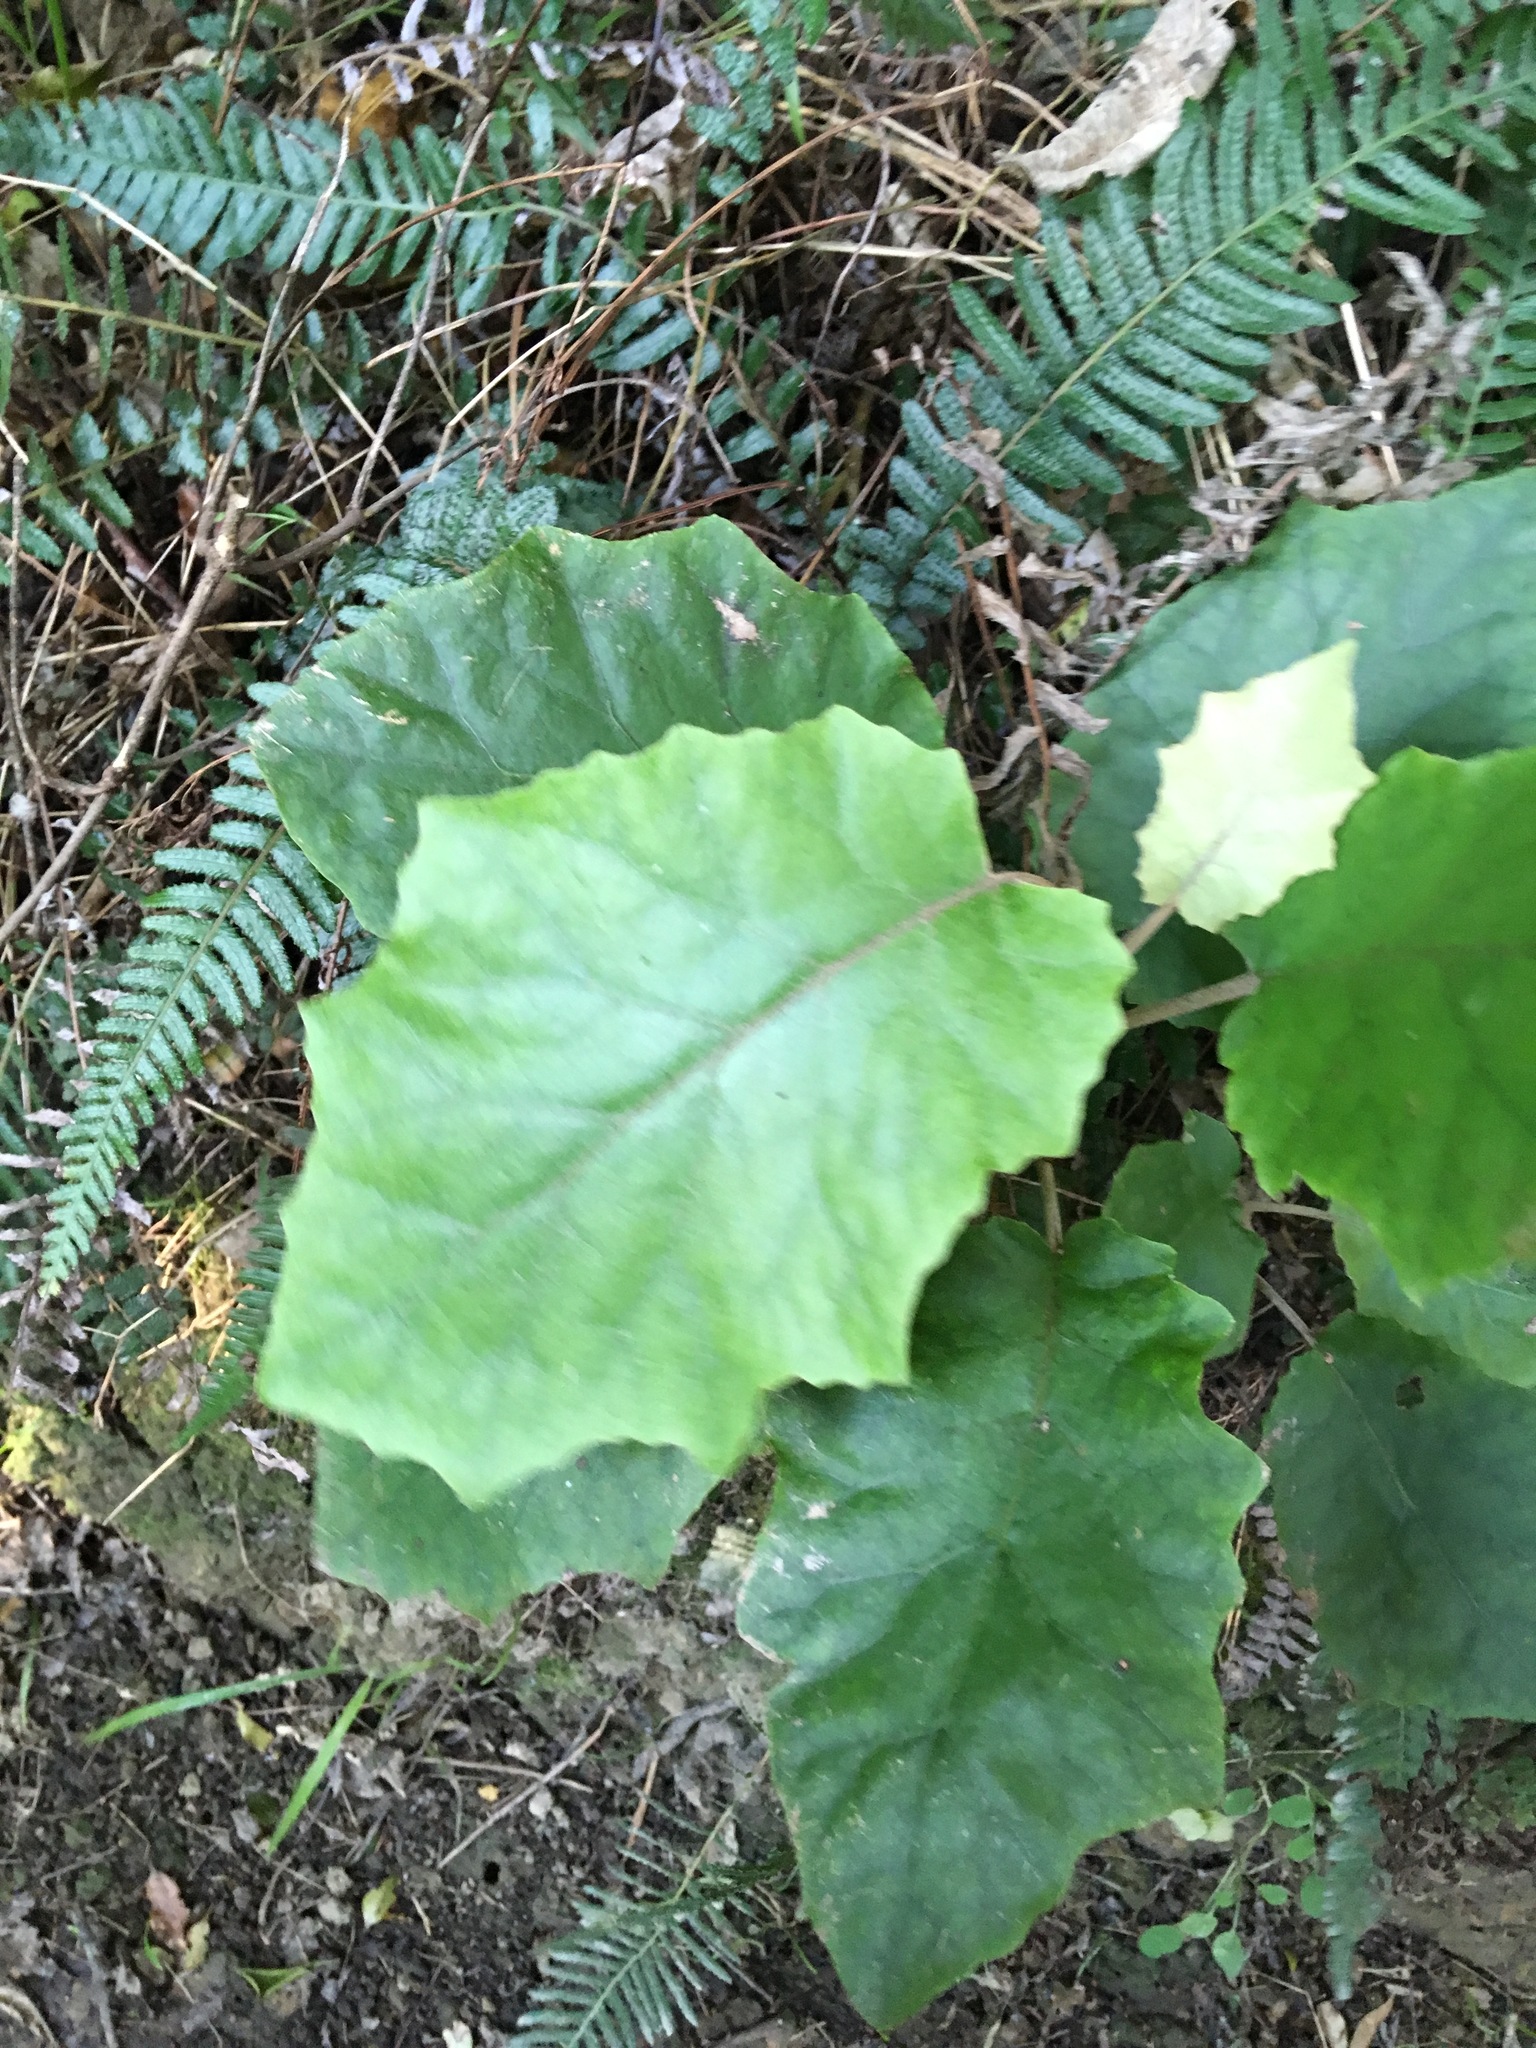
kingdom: Plantae
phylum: Tracheophyta
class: Magnoliopsida
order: Asterales
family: Asteraceae
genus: Brachyglottis
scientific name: Brachyglottis repanda
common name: Hedge ragwort
